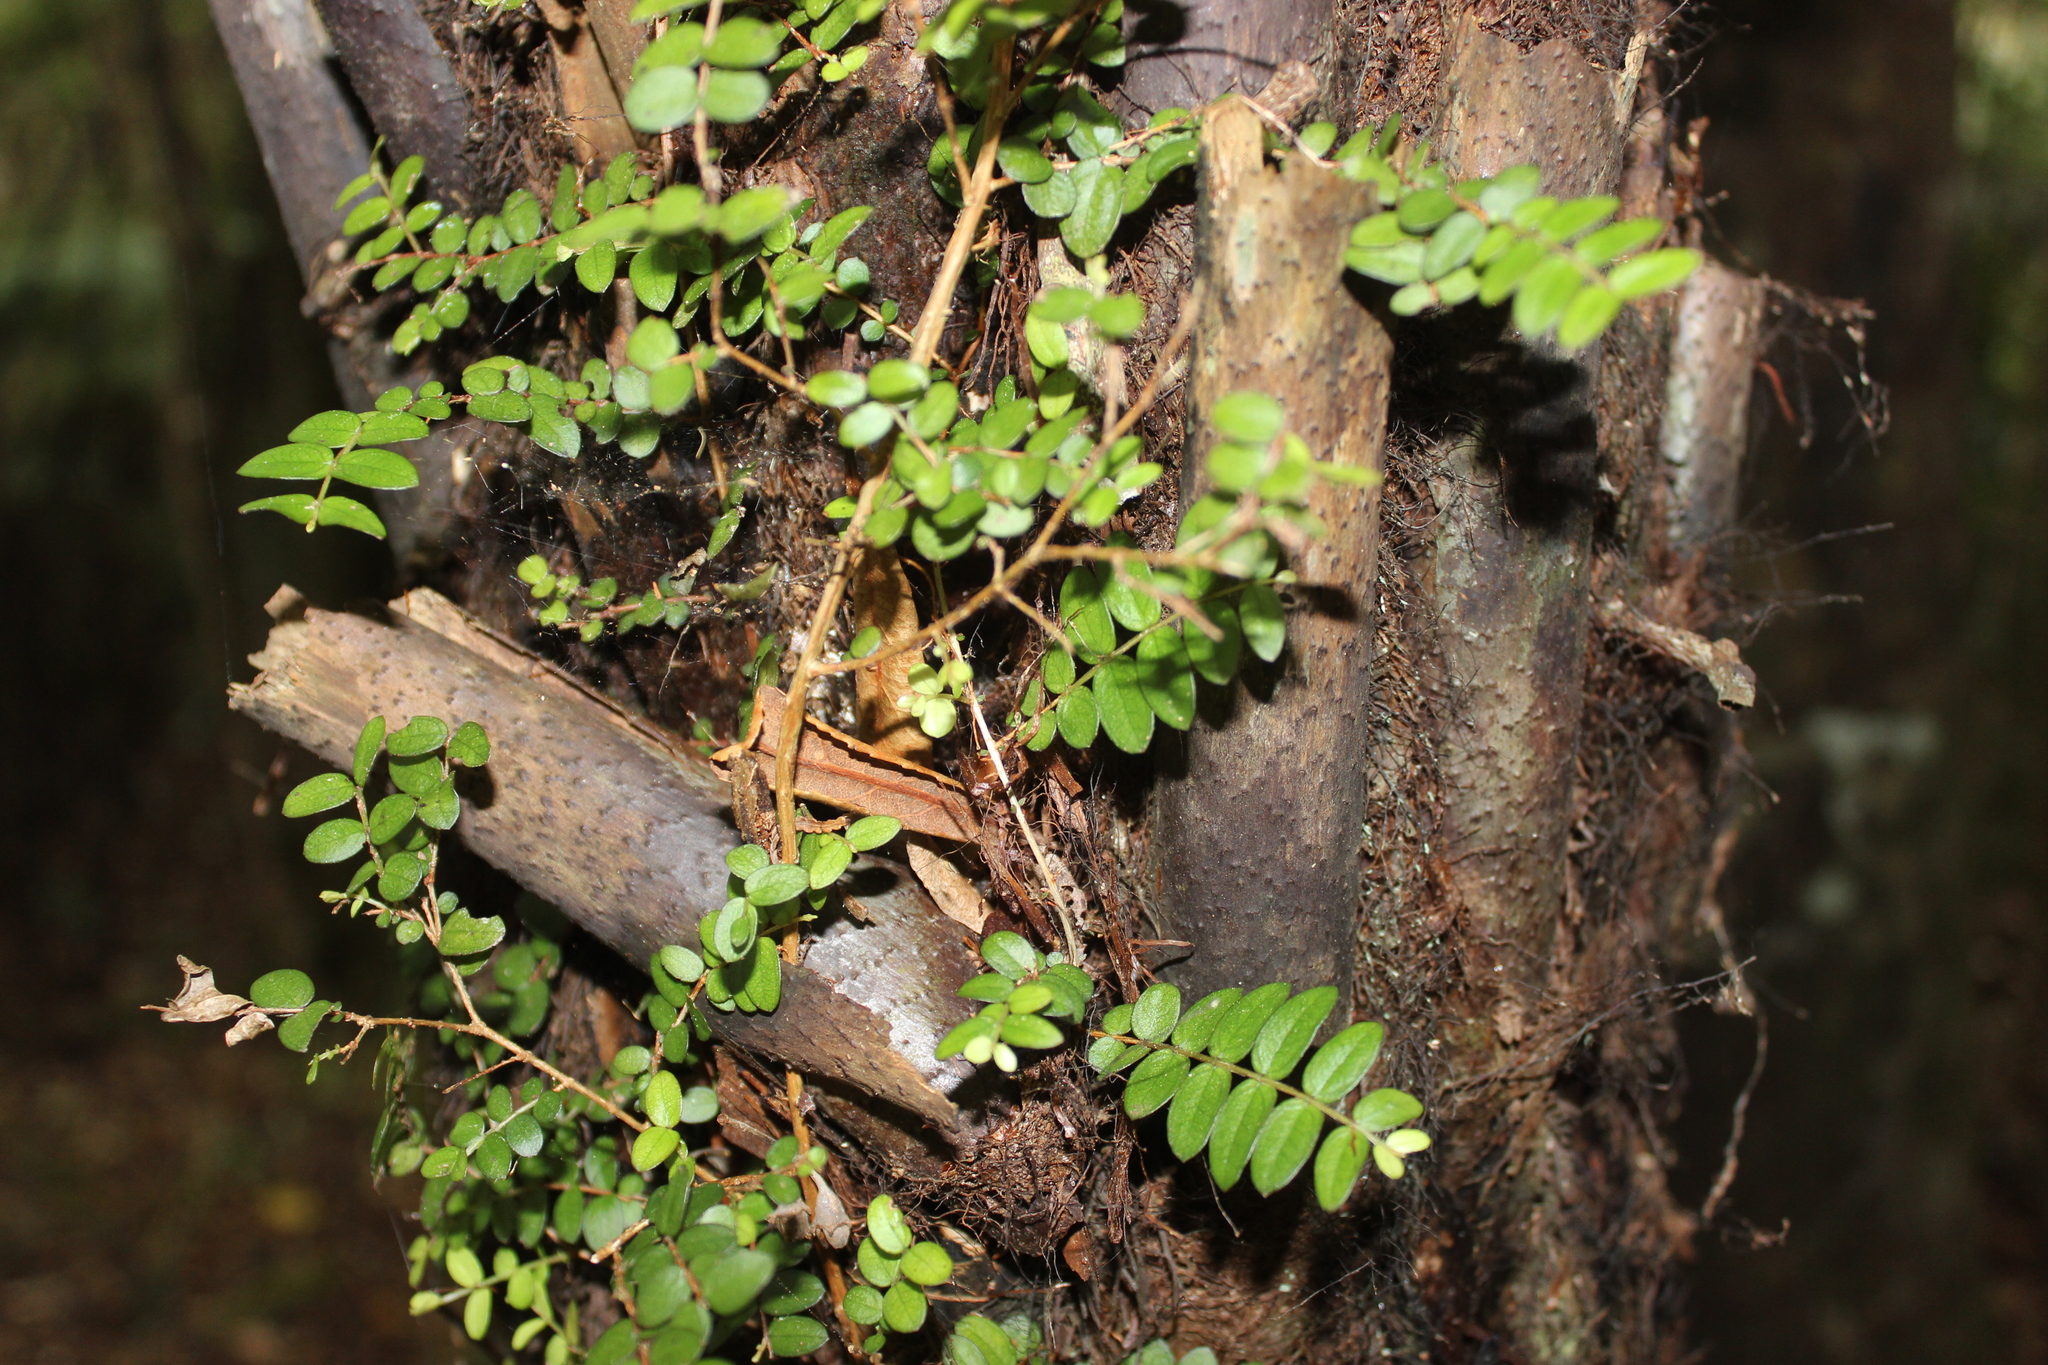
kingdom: Plantae
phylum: Tracheophyta
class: Magnoliopsida
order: Myrtales
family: Myrtaceae
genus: Metrosideros
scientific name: Metrosideros diffusa
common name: Small ratavine
